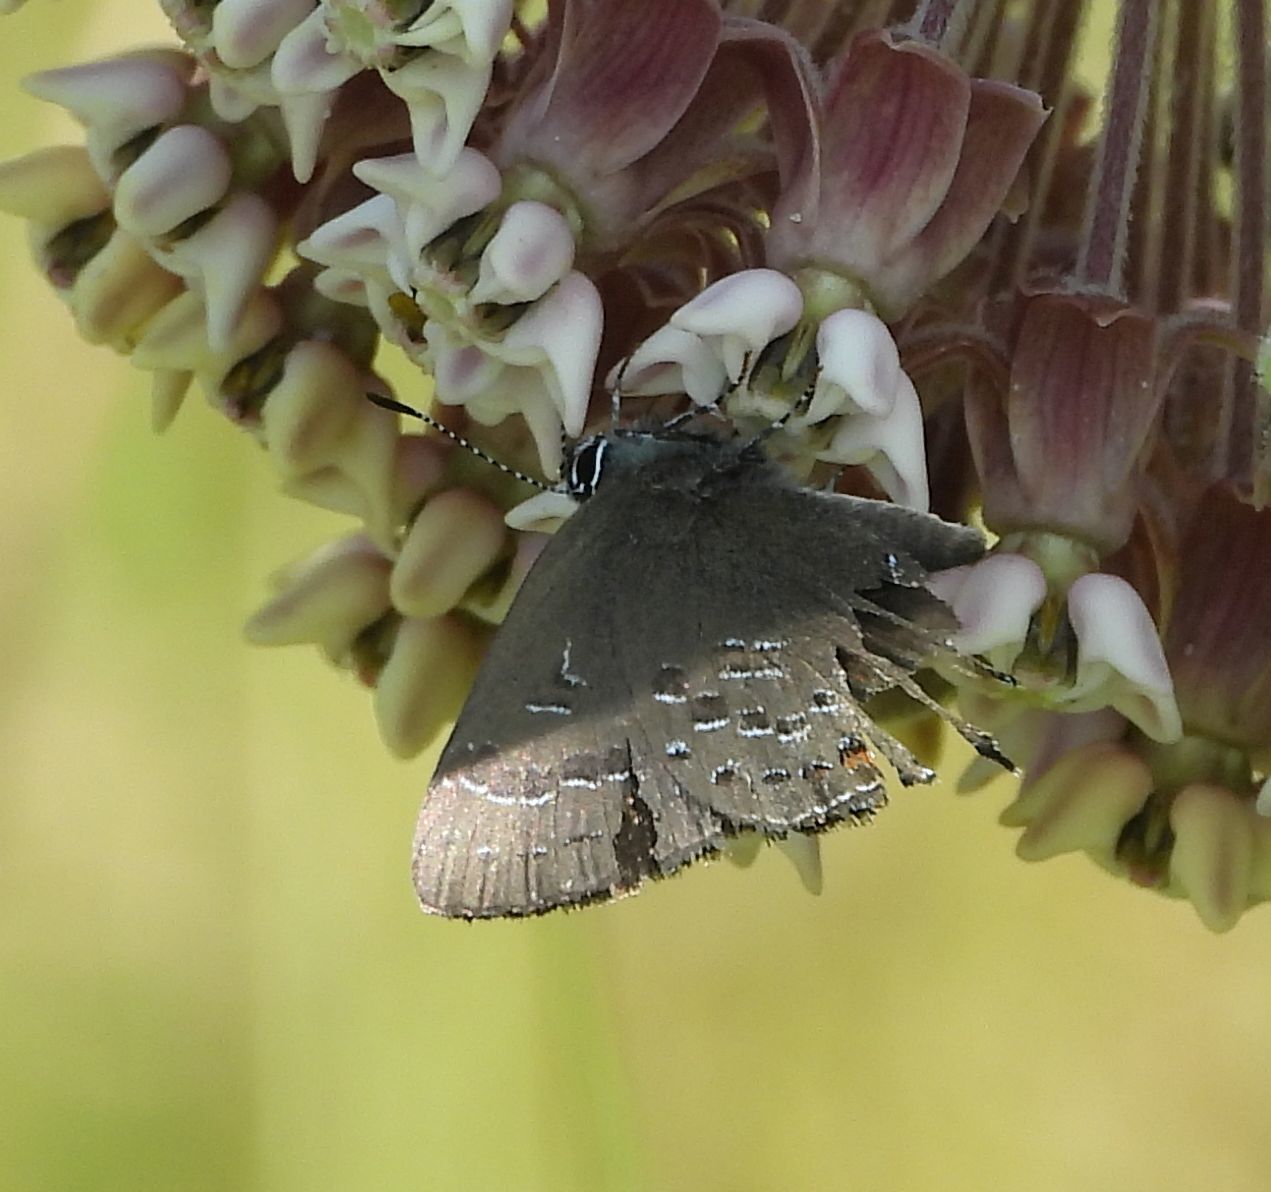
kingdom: Animalia
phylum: Arthropoda
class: Insecta
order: Lepidoptera
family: Lycaenidae
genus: Satyrium
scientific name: Satyrium calanus
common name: Banded hairstreak
